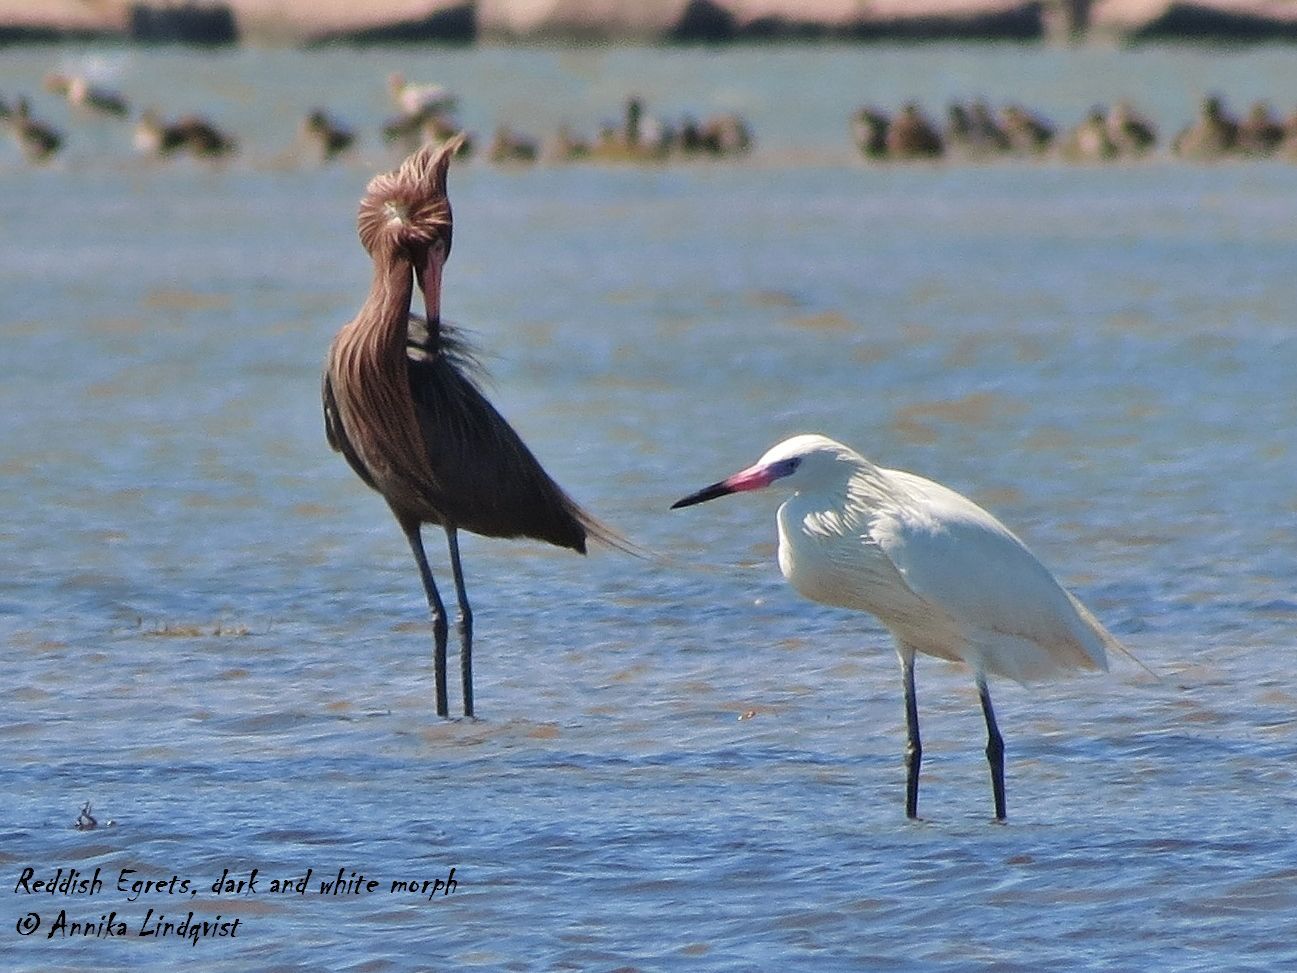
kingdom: Animalia
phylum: Chordata
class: Aves
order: Pelecaniformes
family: Ardeidae
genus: Egretta
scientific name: Egretta rufescens
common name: Reddish egret
